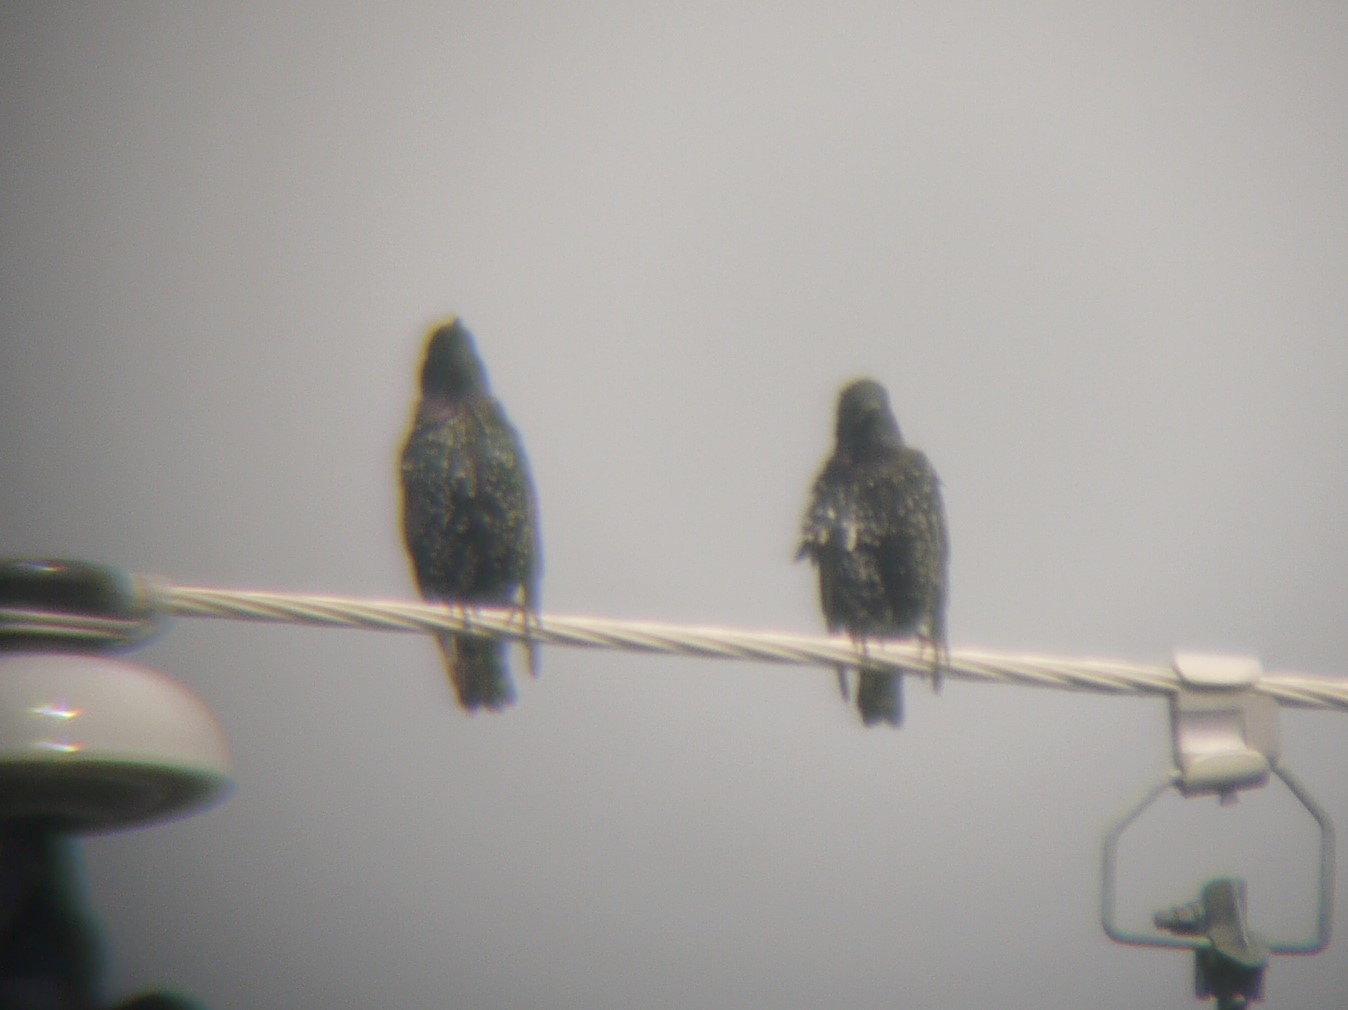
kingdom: Animalia
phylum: Chordata
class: Aves
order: Passeriformes
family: Sturnidae
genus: Sturnus
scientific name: Sturnus vulgaris
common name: Common starling
